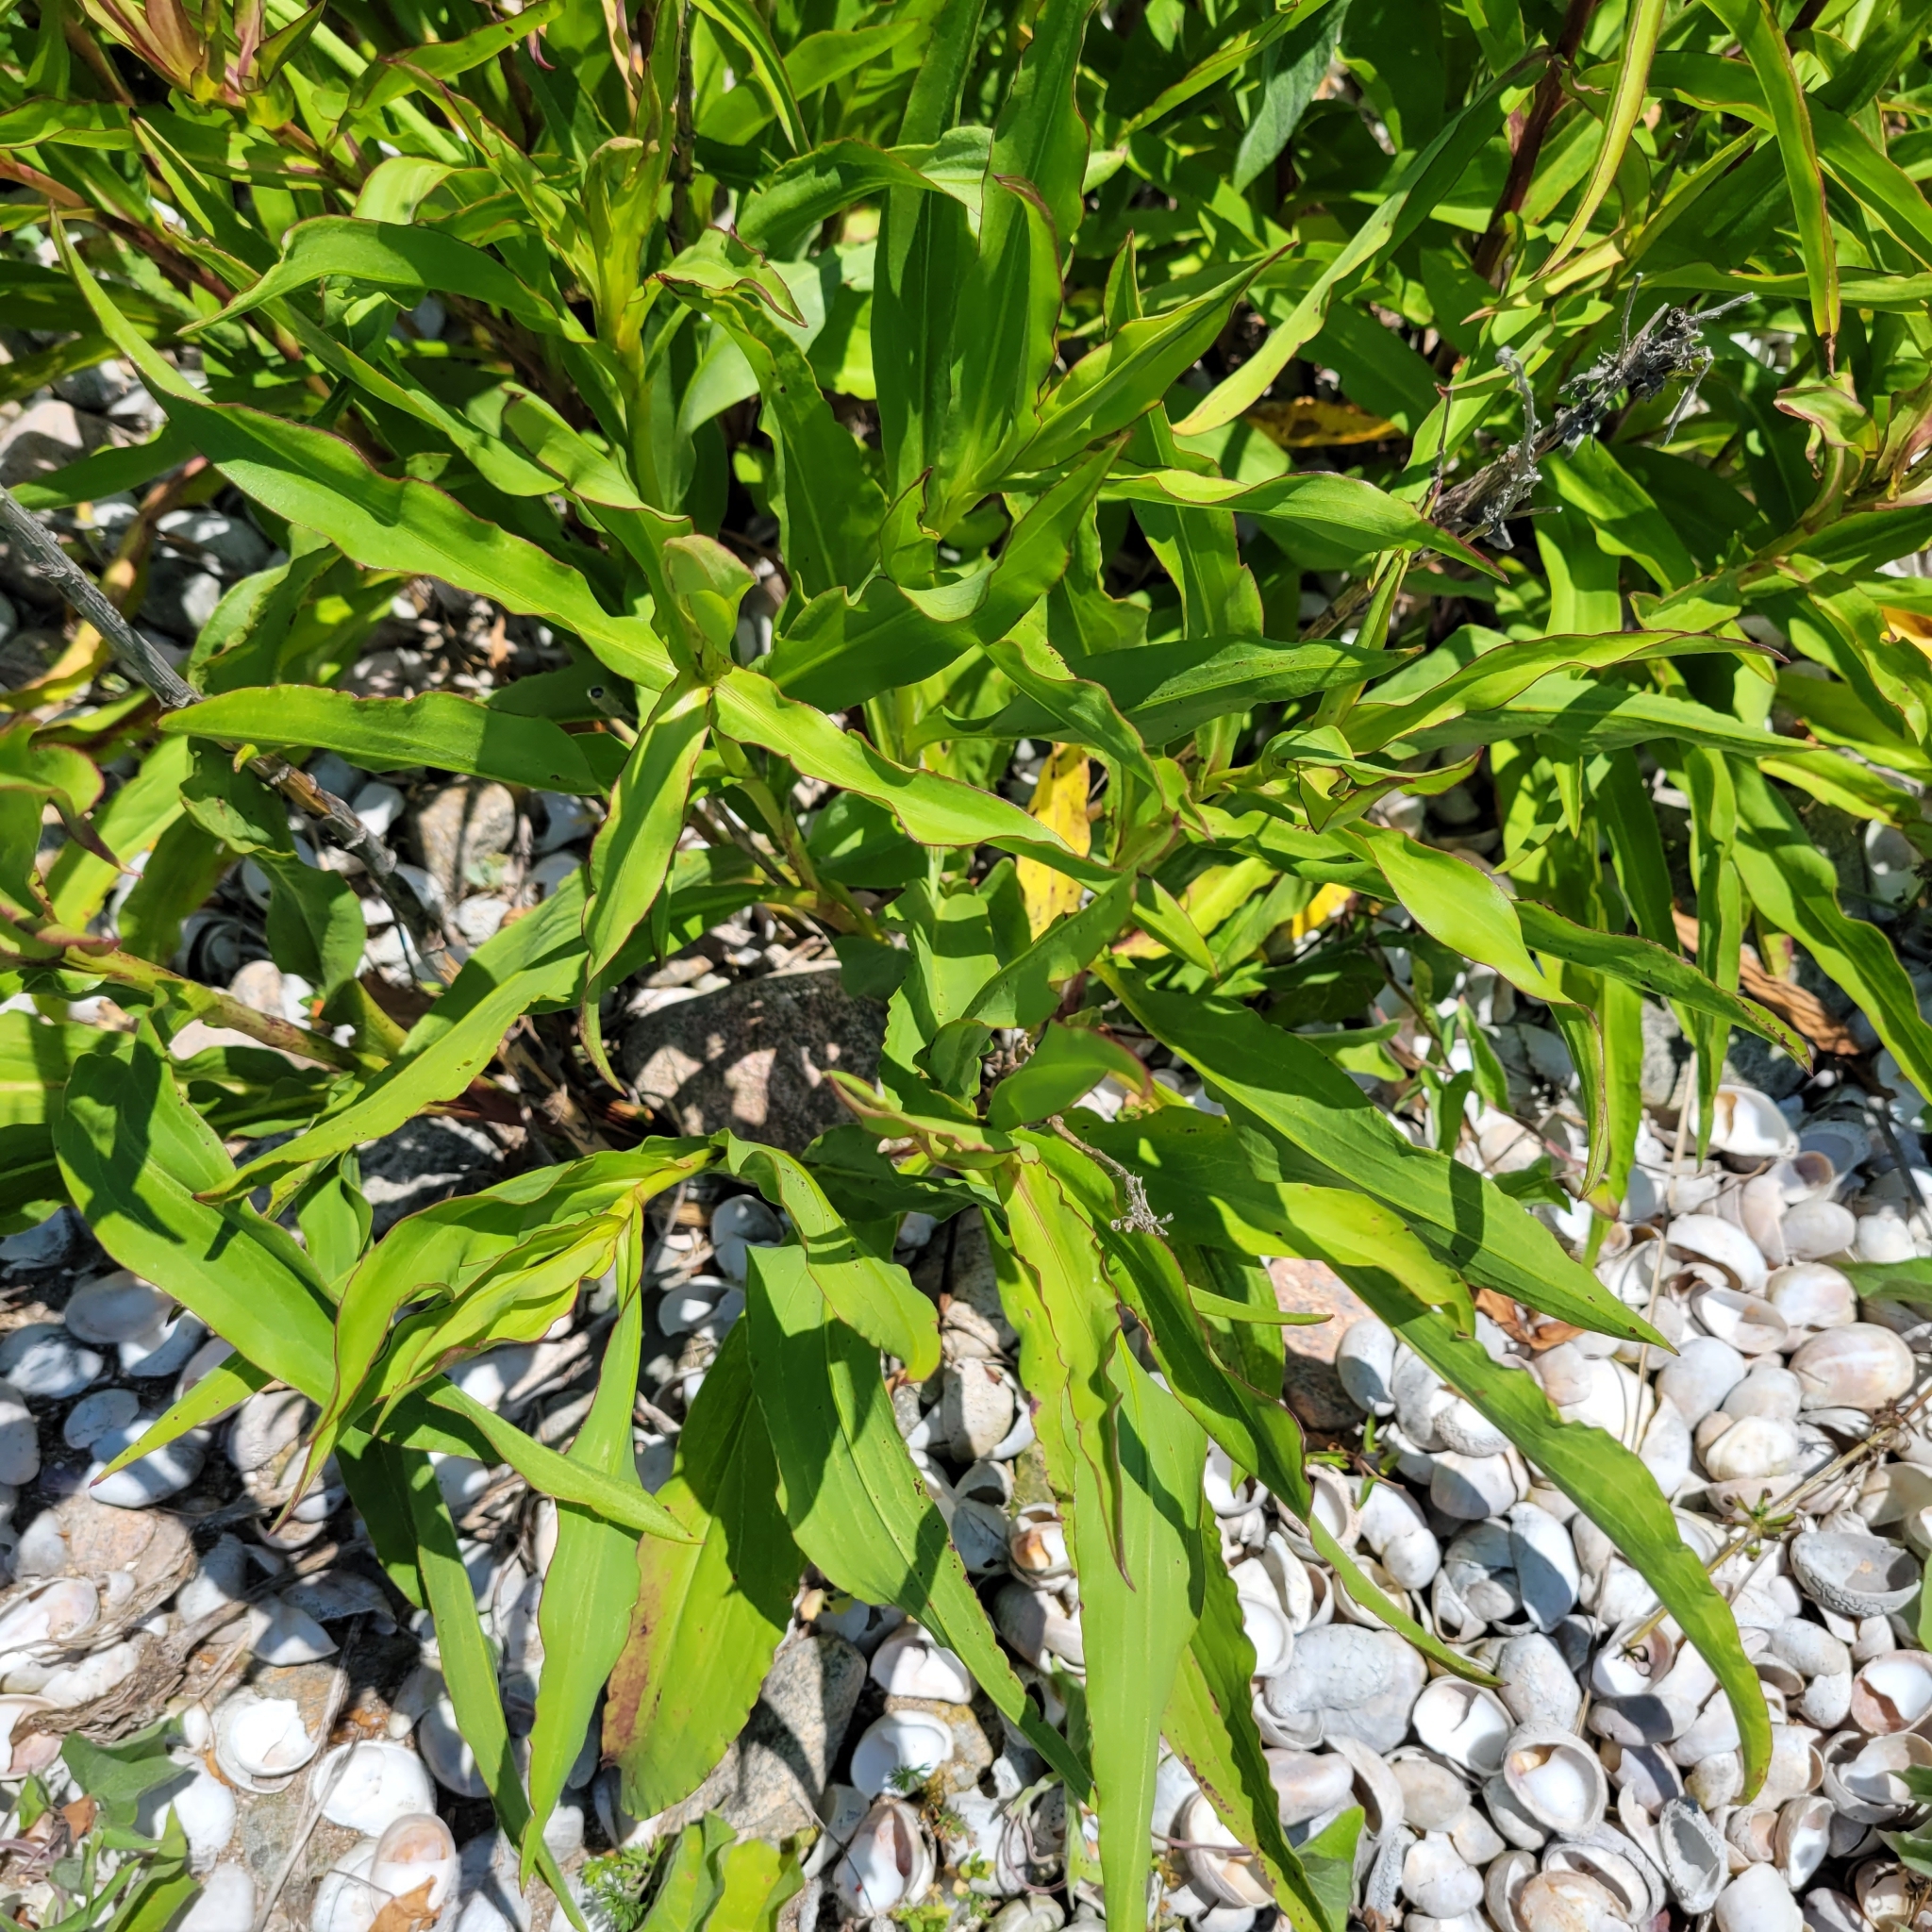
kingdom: Plantae
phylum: Tracheophyta
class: Magnoliopsida
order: Asterales
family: Asteraceae
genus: Solidago
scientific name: Solidago sempervirens
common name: Salt-marsh goldenrod
